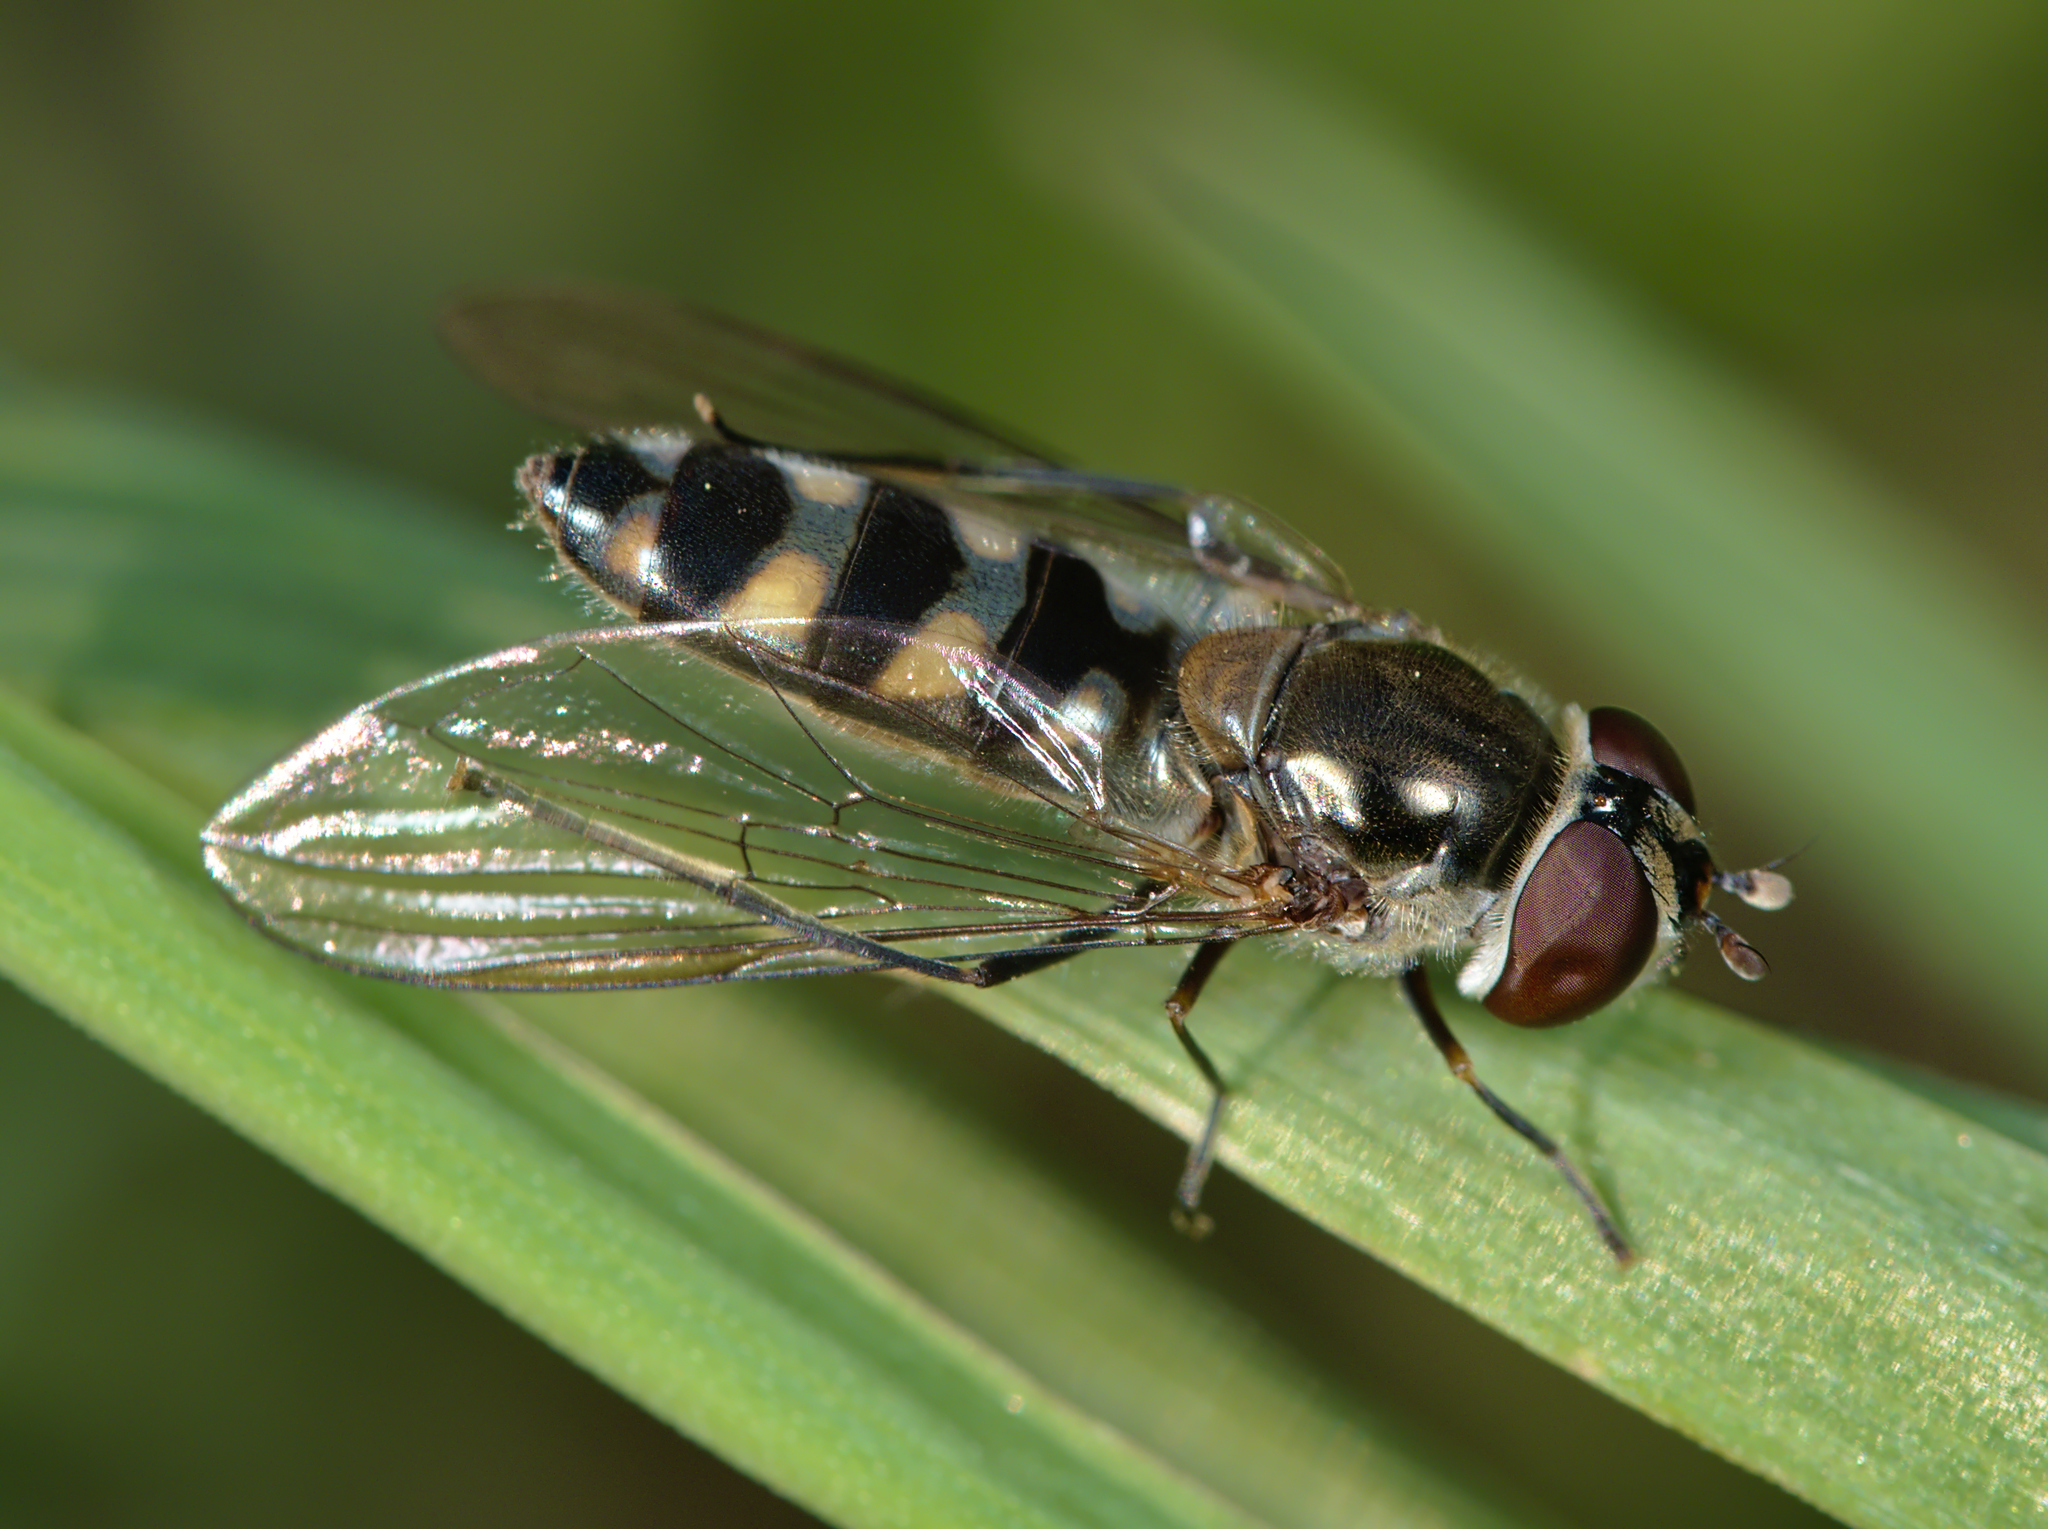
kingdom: Animalia
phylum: Arthropoda
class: Insecta
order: Diptera
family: Syrphidae
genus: Meliscaeva
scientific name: Meliscaeva auricollis
